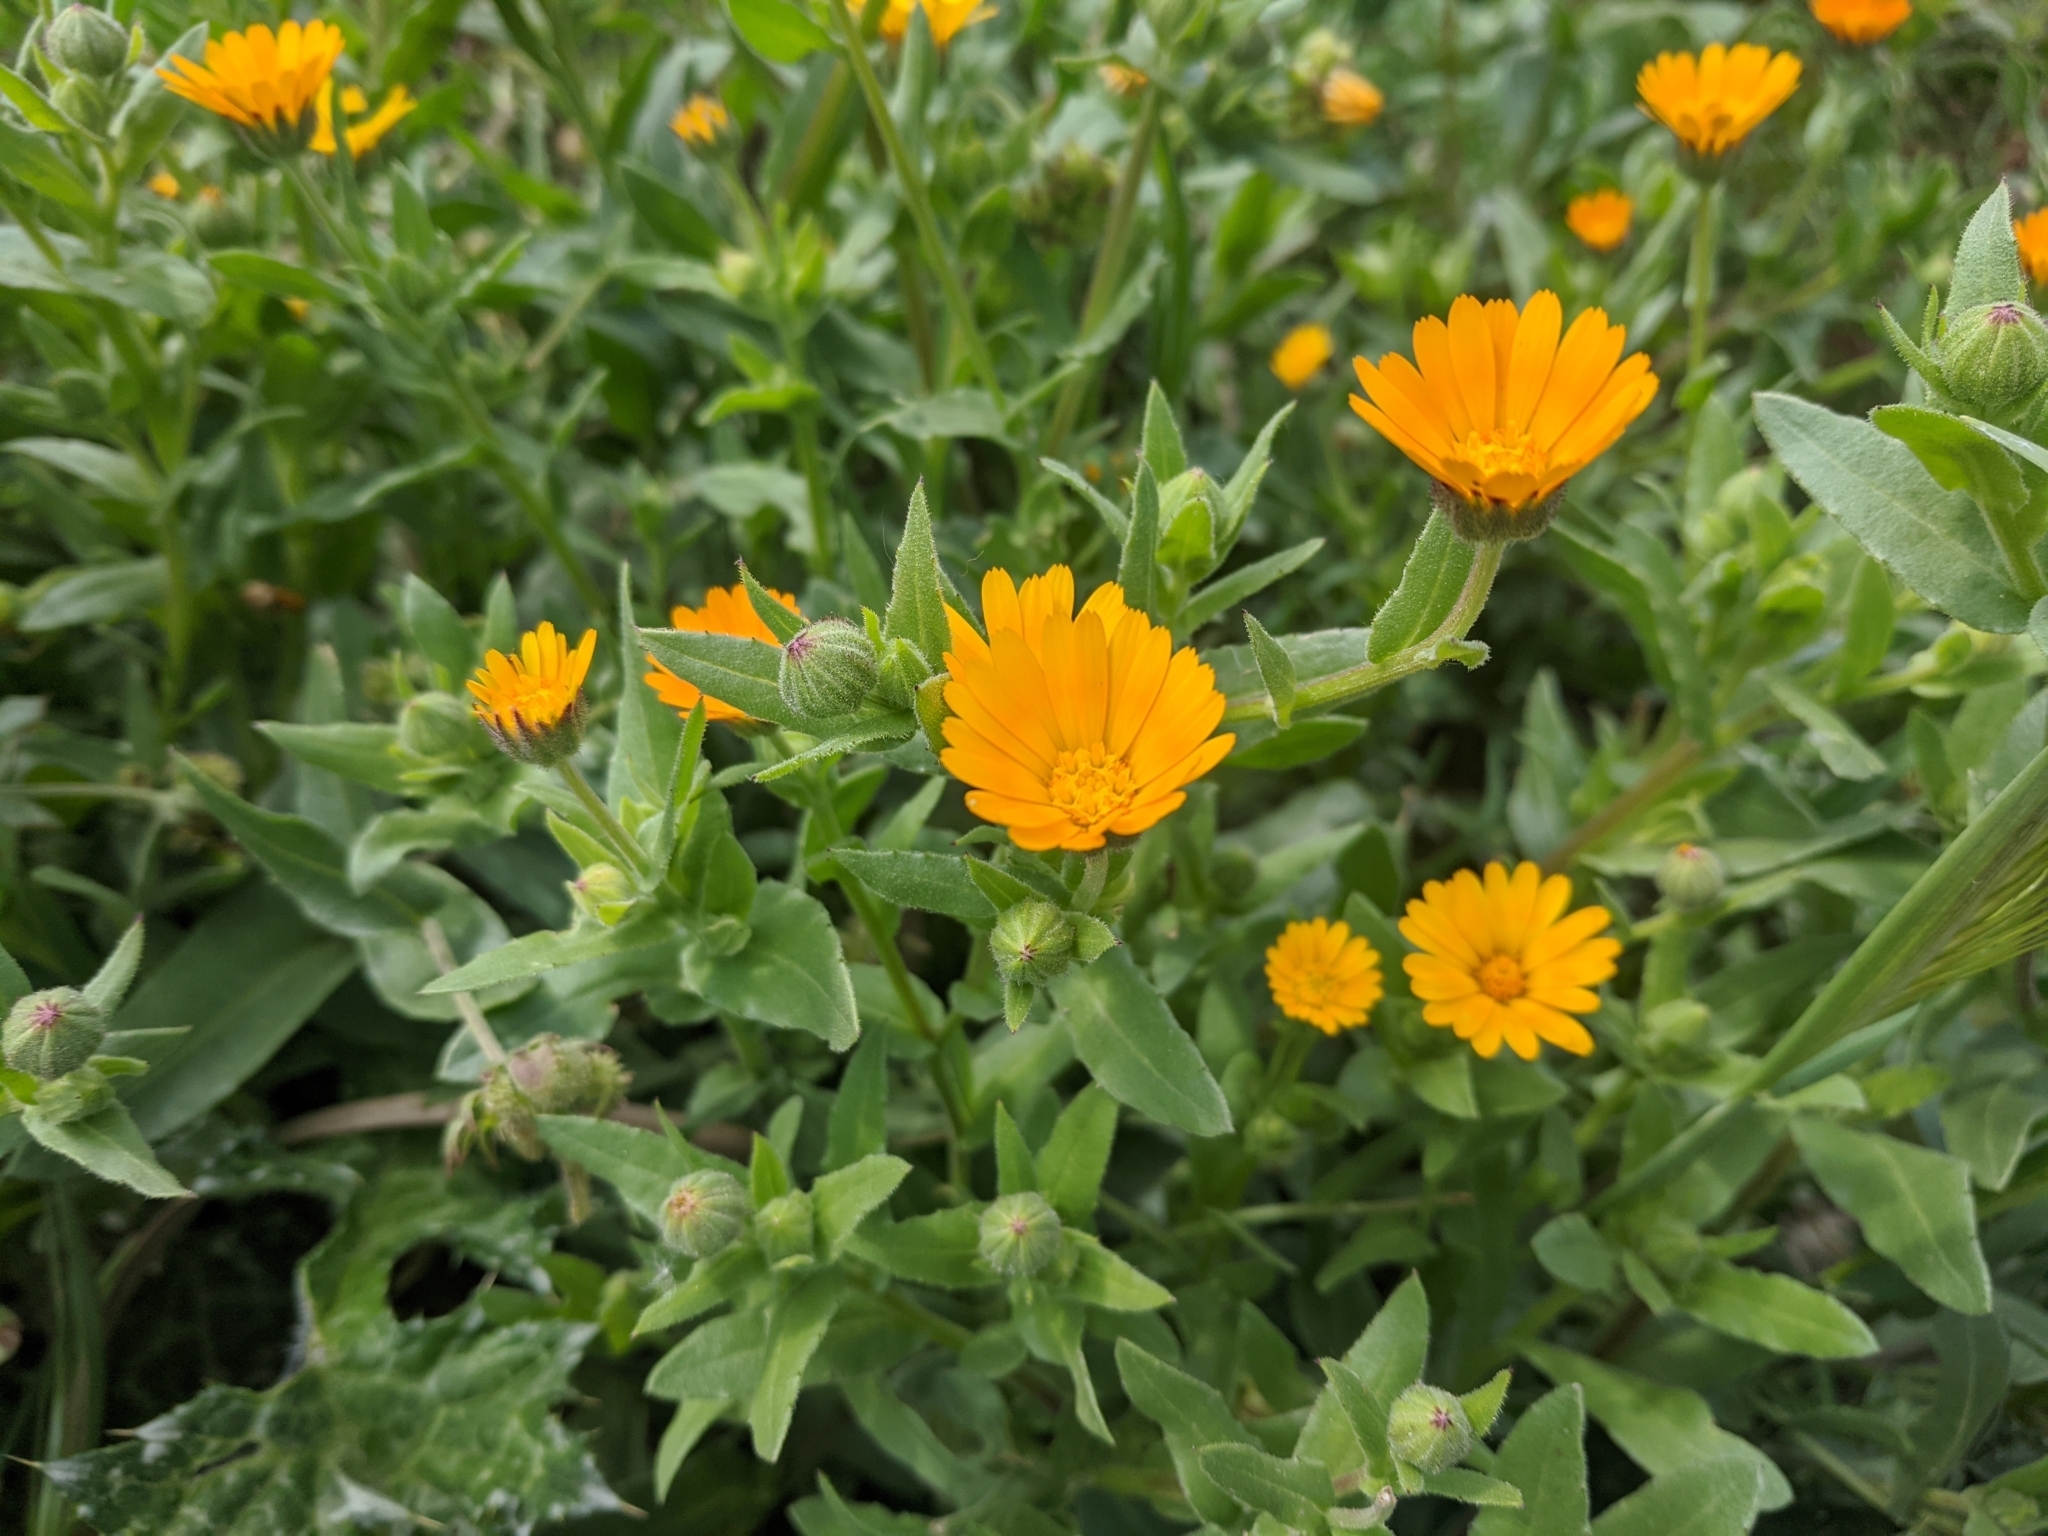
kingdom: Plantae
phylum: Tracheophyta
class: Magnoliopsida
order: Asterales
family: Asteraceae
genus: Calendula
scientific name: Calendula arvensis
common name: Field marigold
